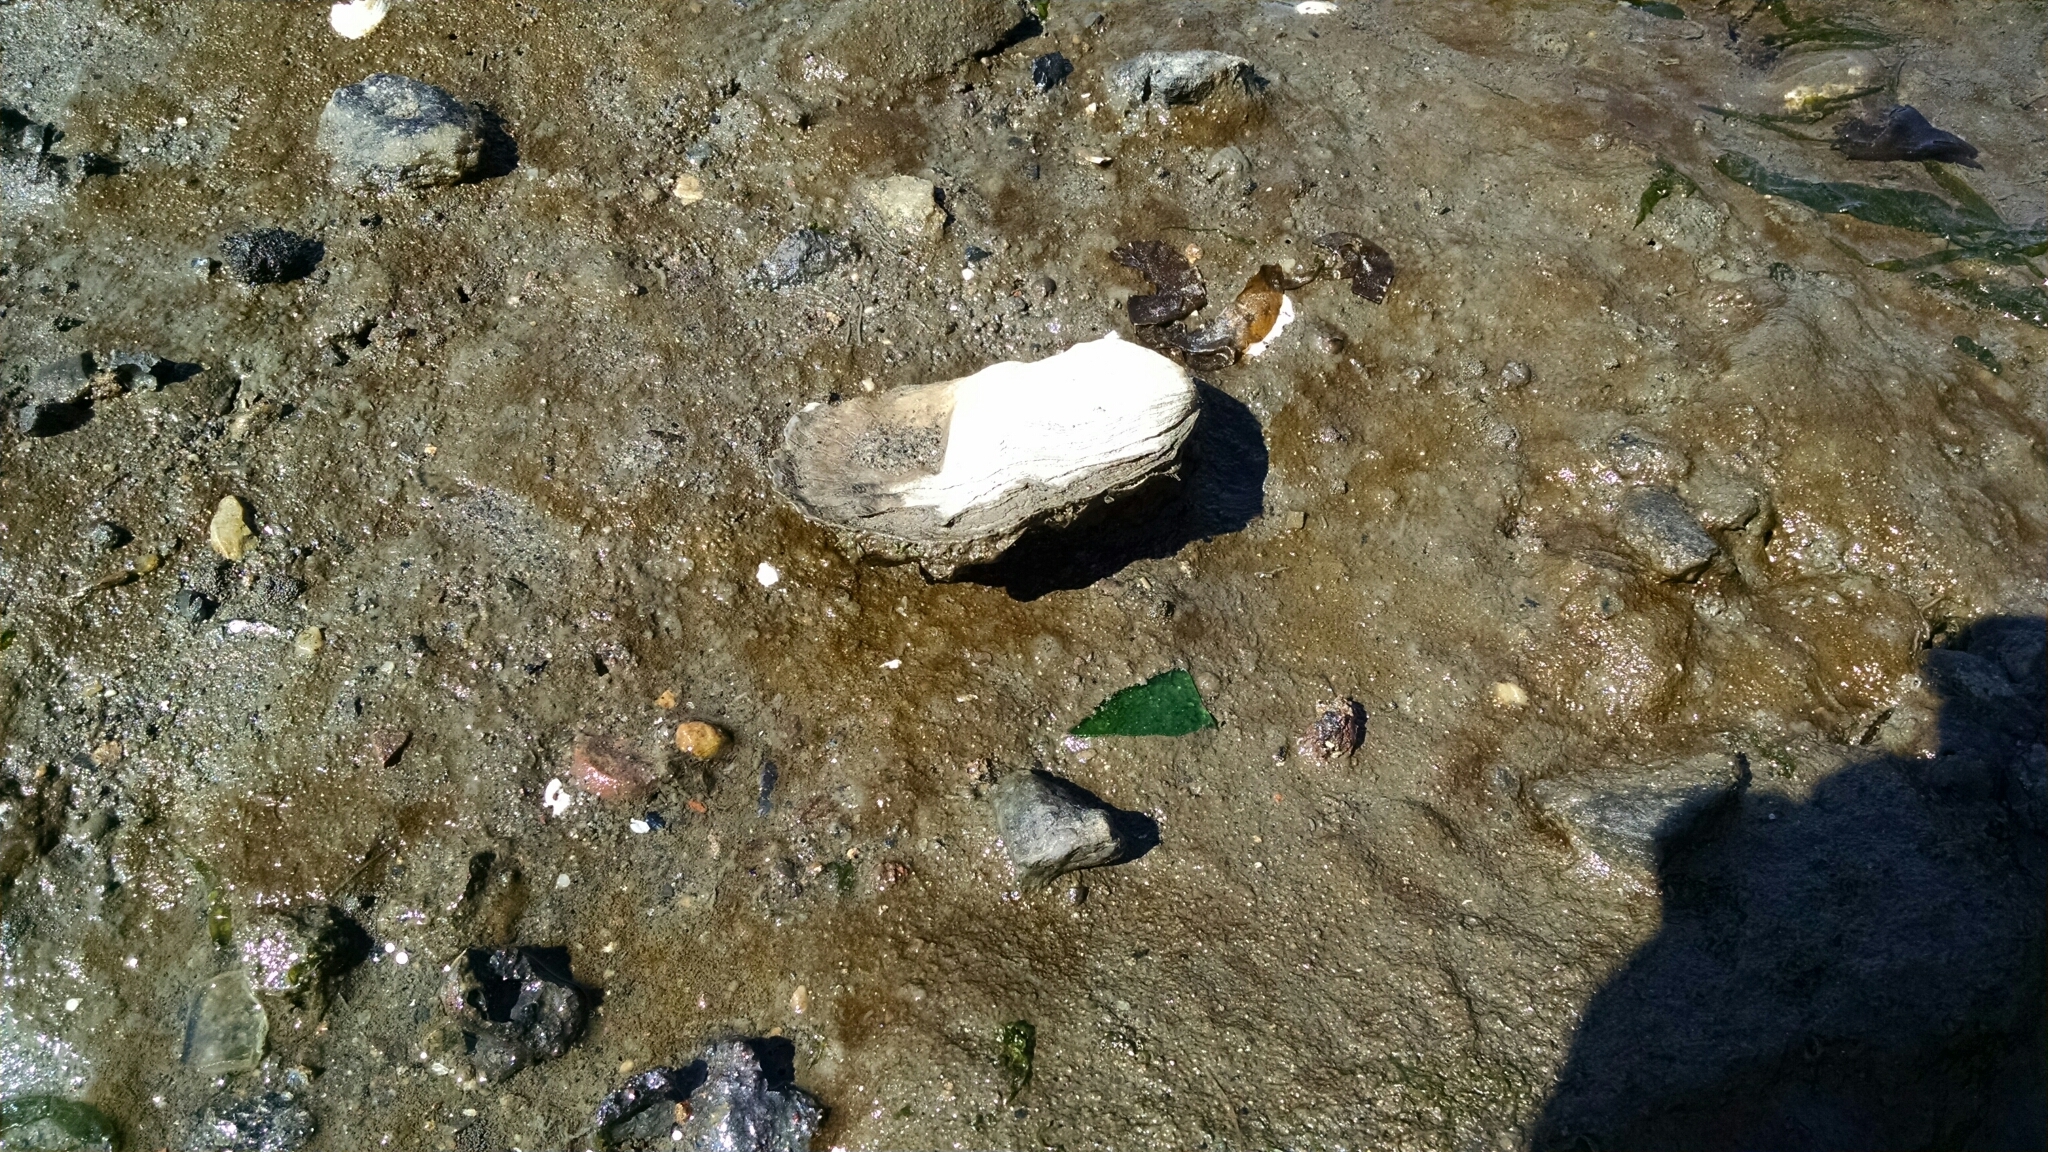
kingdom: Animalia
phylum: Mollusca
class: Bivalvia
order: Ostreida
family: Ostreidae
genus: Crassostrea
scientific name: Crassostrea virginica
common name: American oyster
